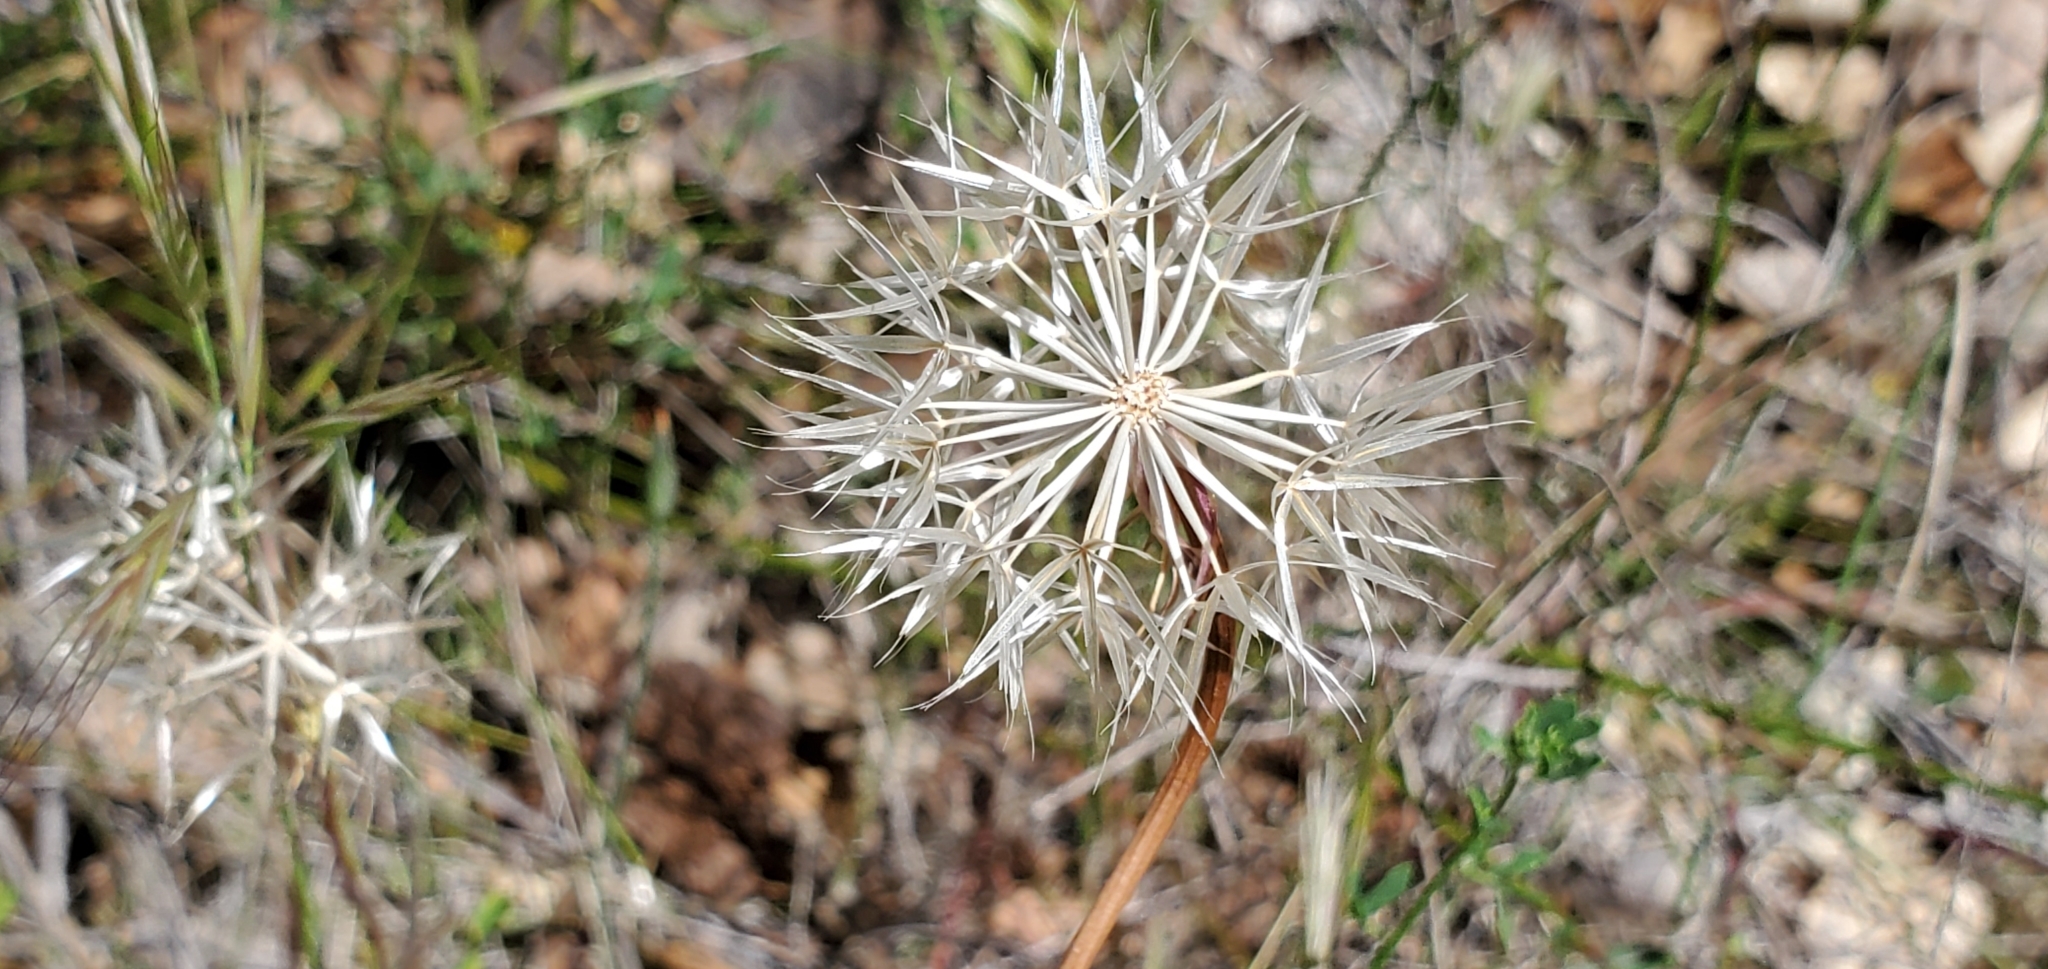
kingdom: Plantae
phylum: Tracheophyta
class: Magnoliopsida
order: Asterales
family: Asteraceae
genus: Microseris
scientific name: Microseris lindleyi
